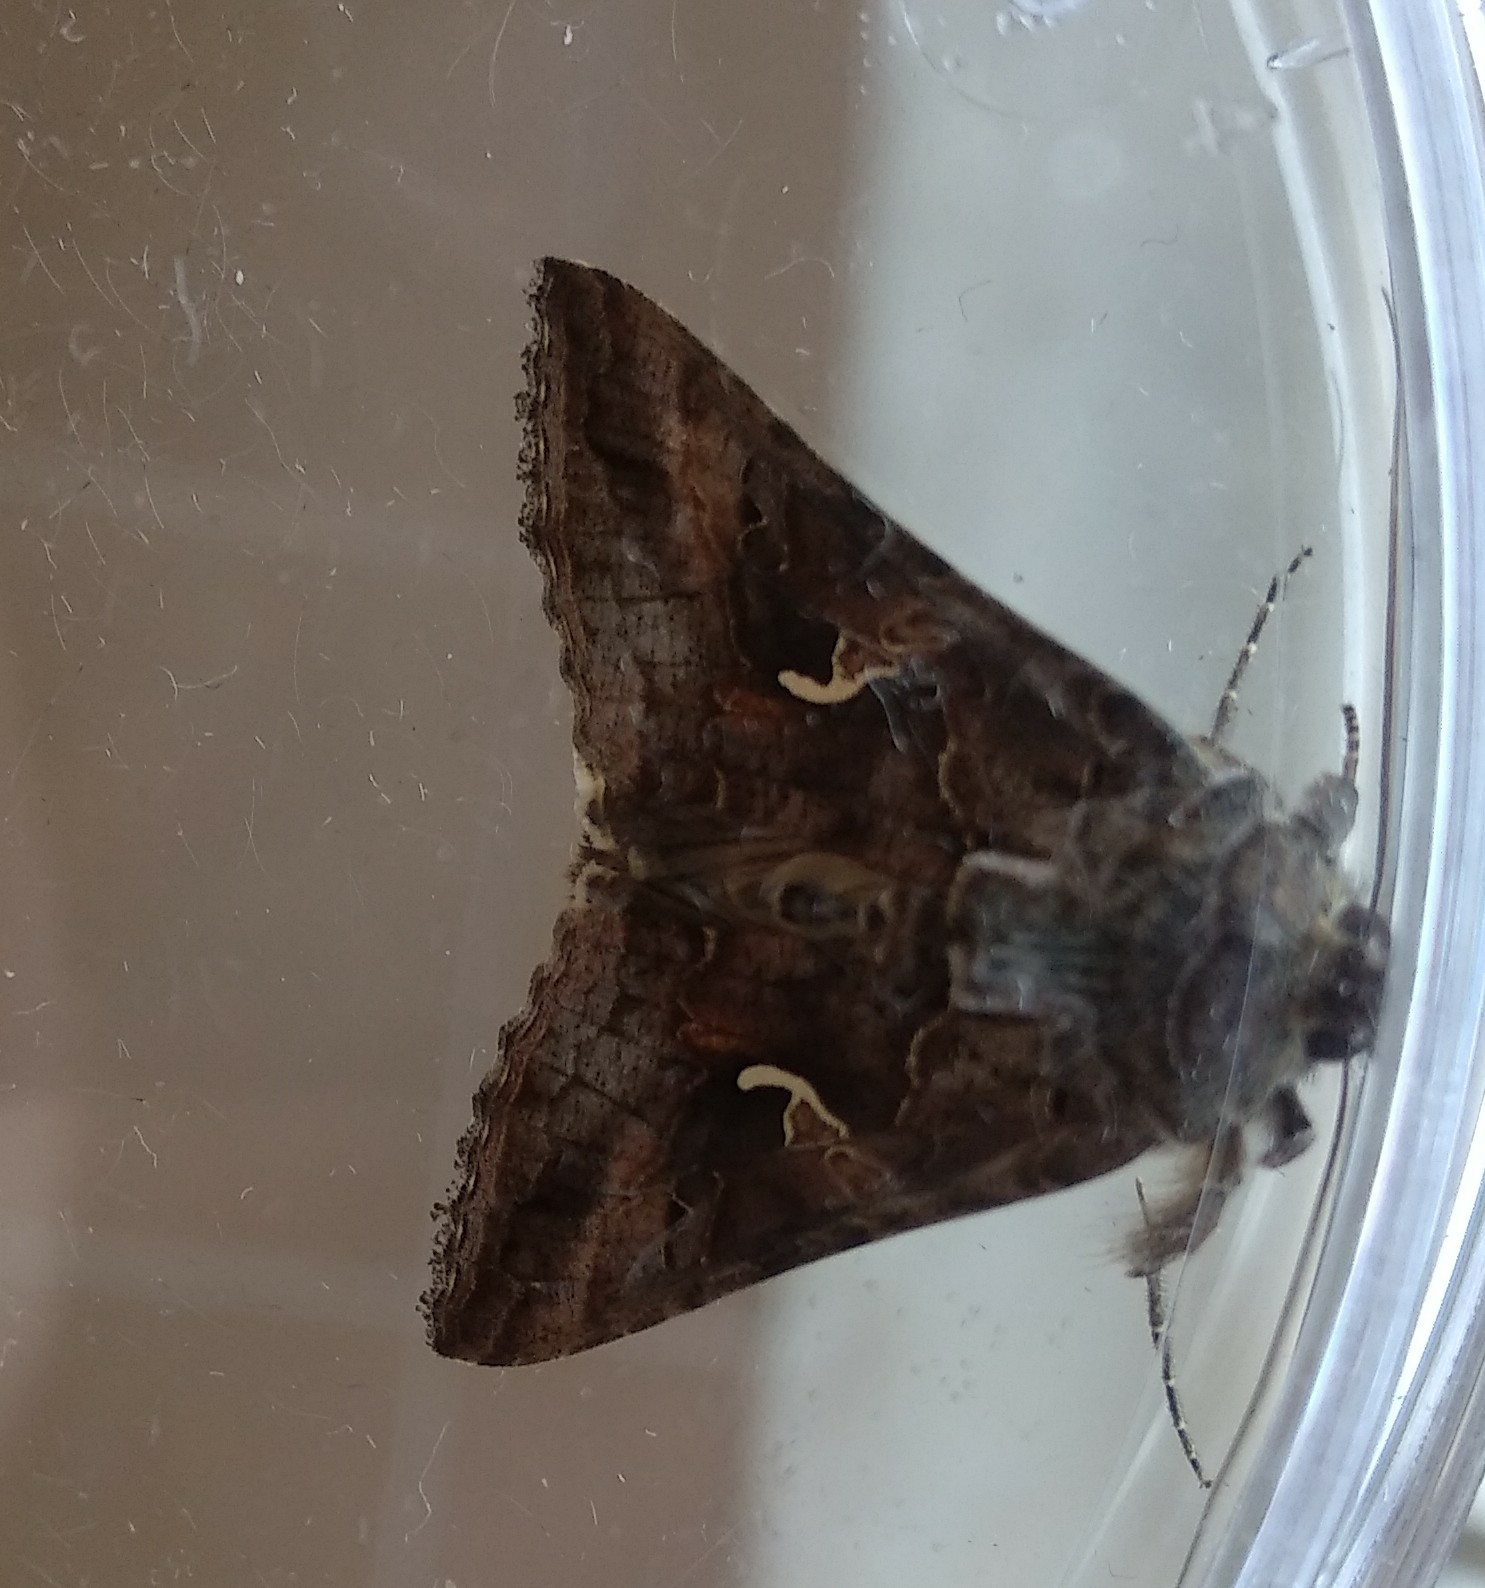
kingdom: Animalia
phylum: Arthropoda
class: Insecta
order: Lepidoptera
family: Noctuidae
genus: Autographa
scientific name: Autographa gamma
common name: Silver y
